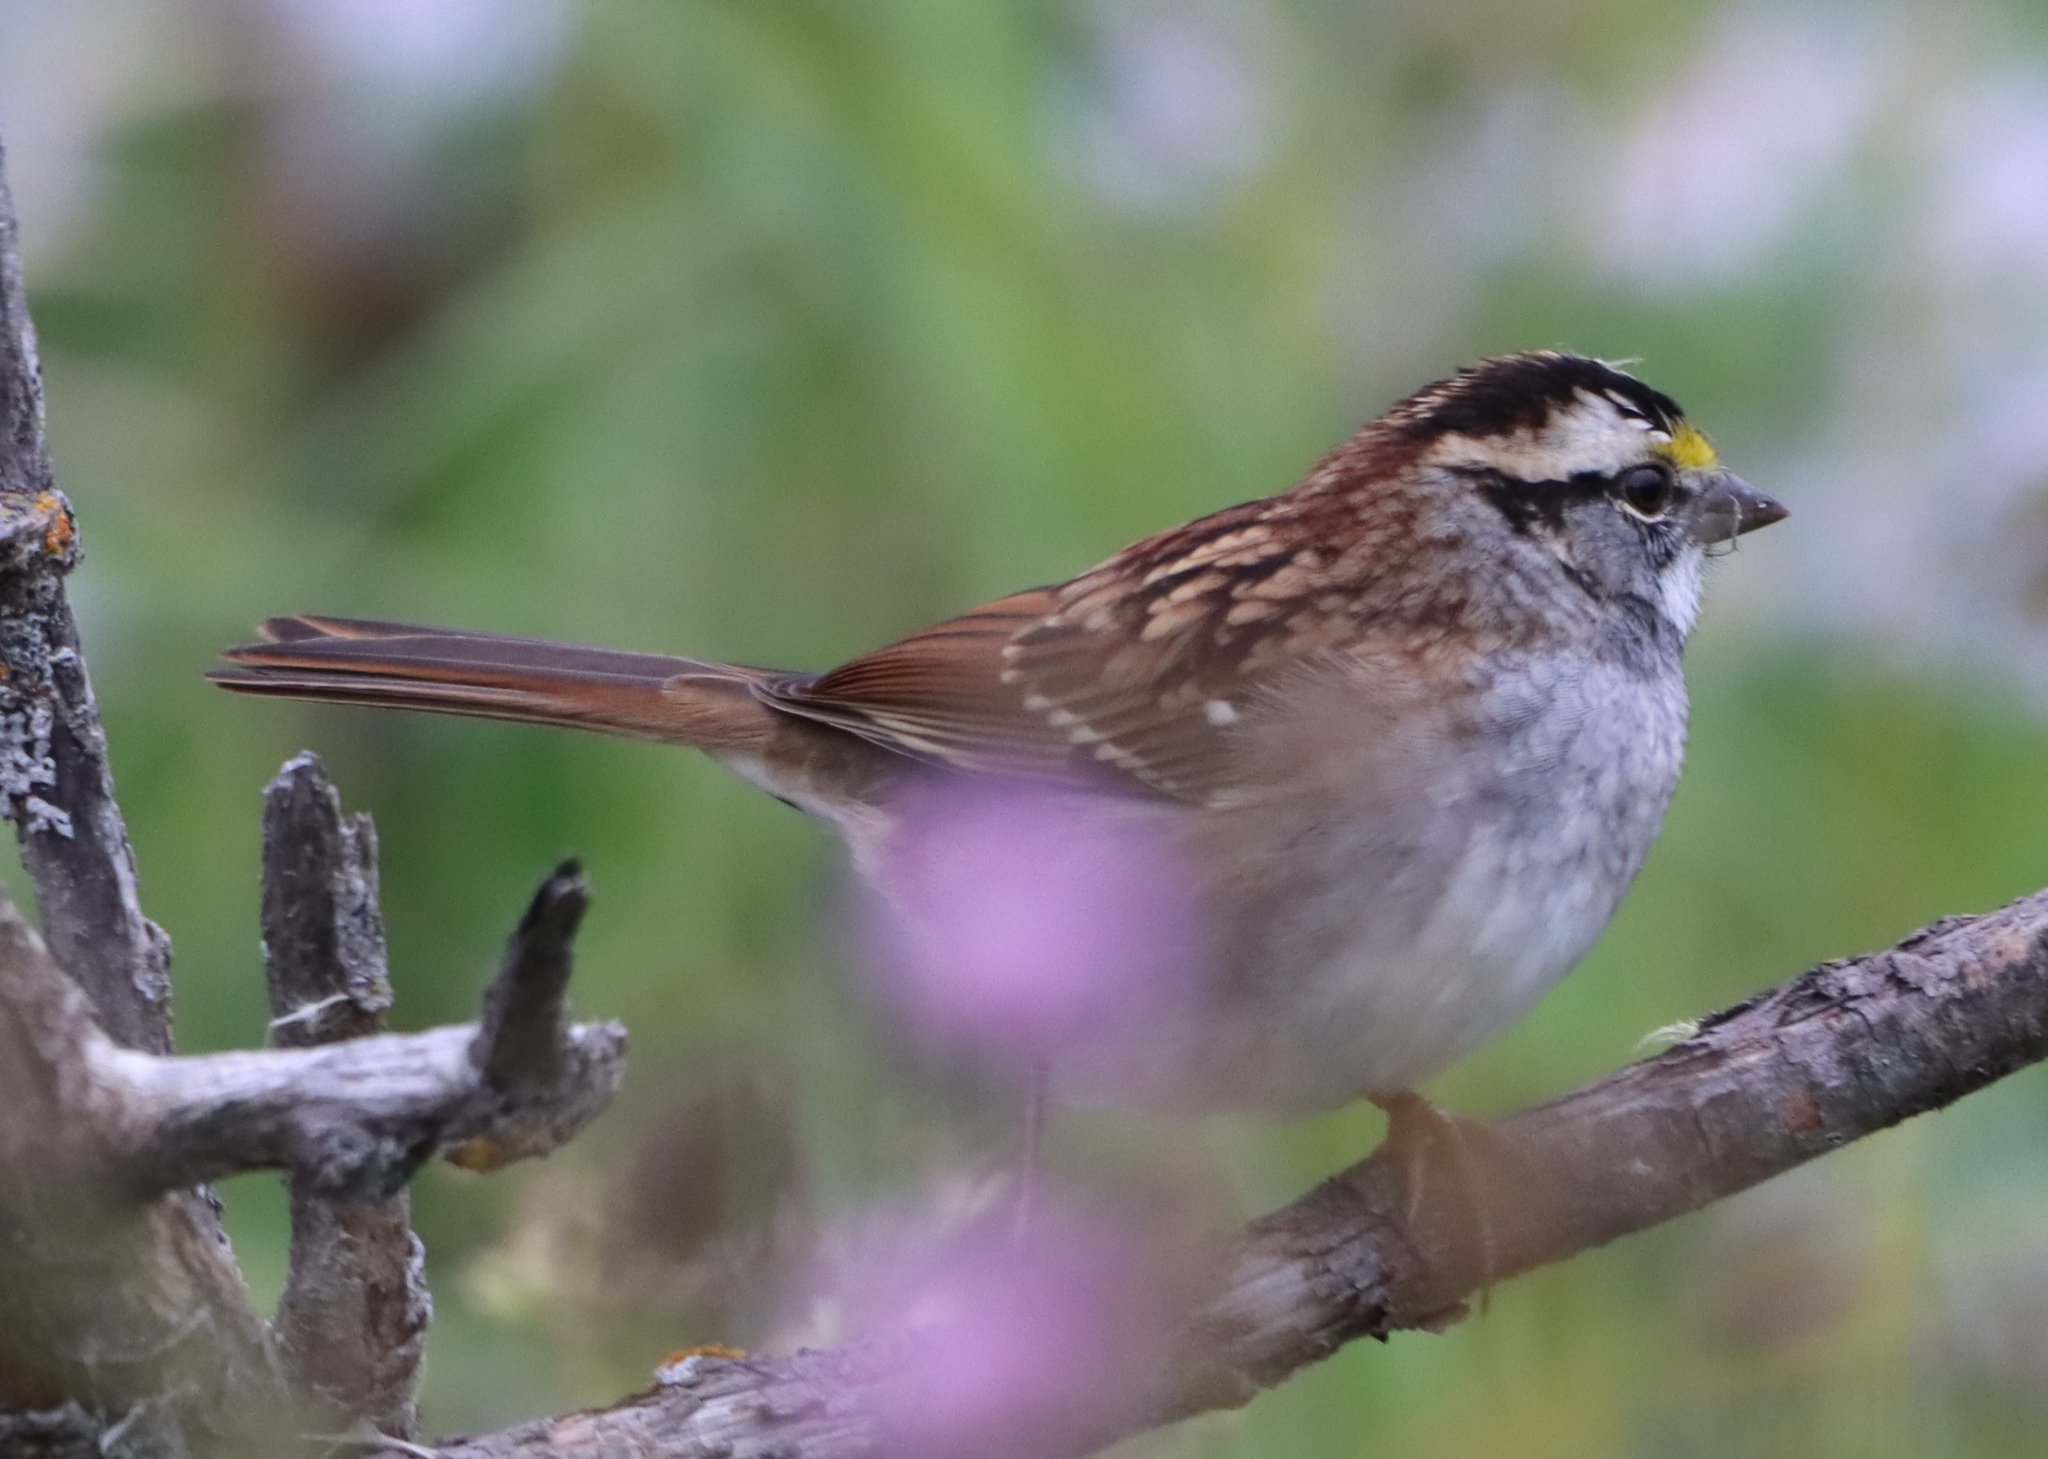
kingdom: Animalia
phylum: Chordata
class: Aves
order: Passeriformes
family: Passerellidae
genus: Zonotrichia
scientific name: Zonotrichia albicollis
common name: White-throated sparrow
